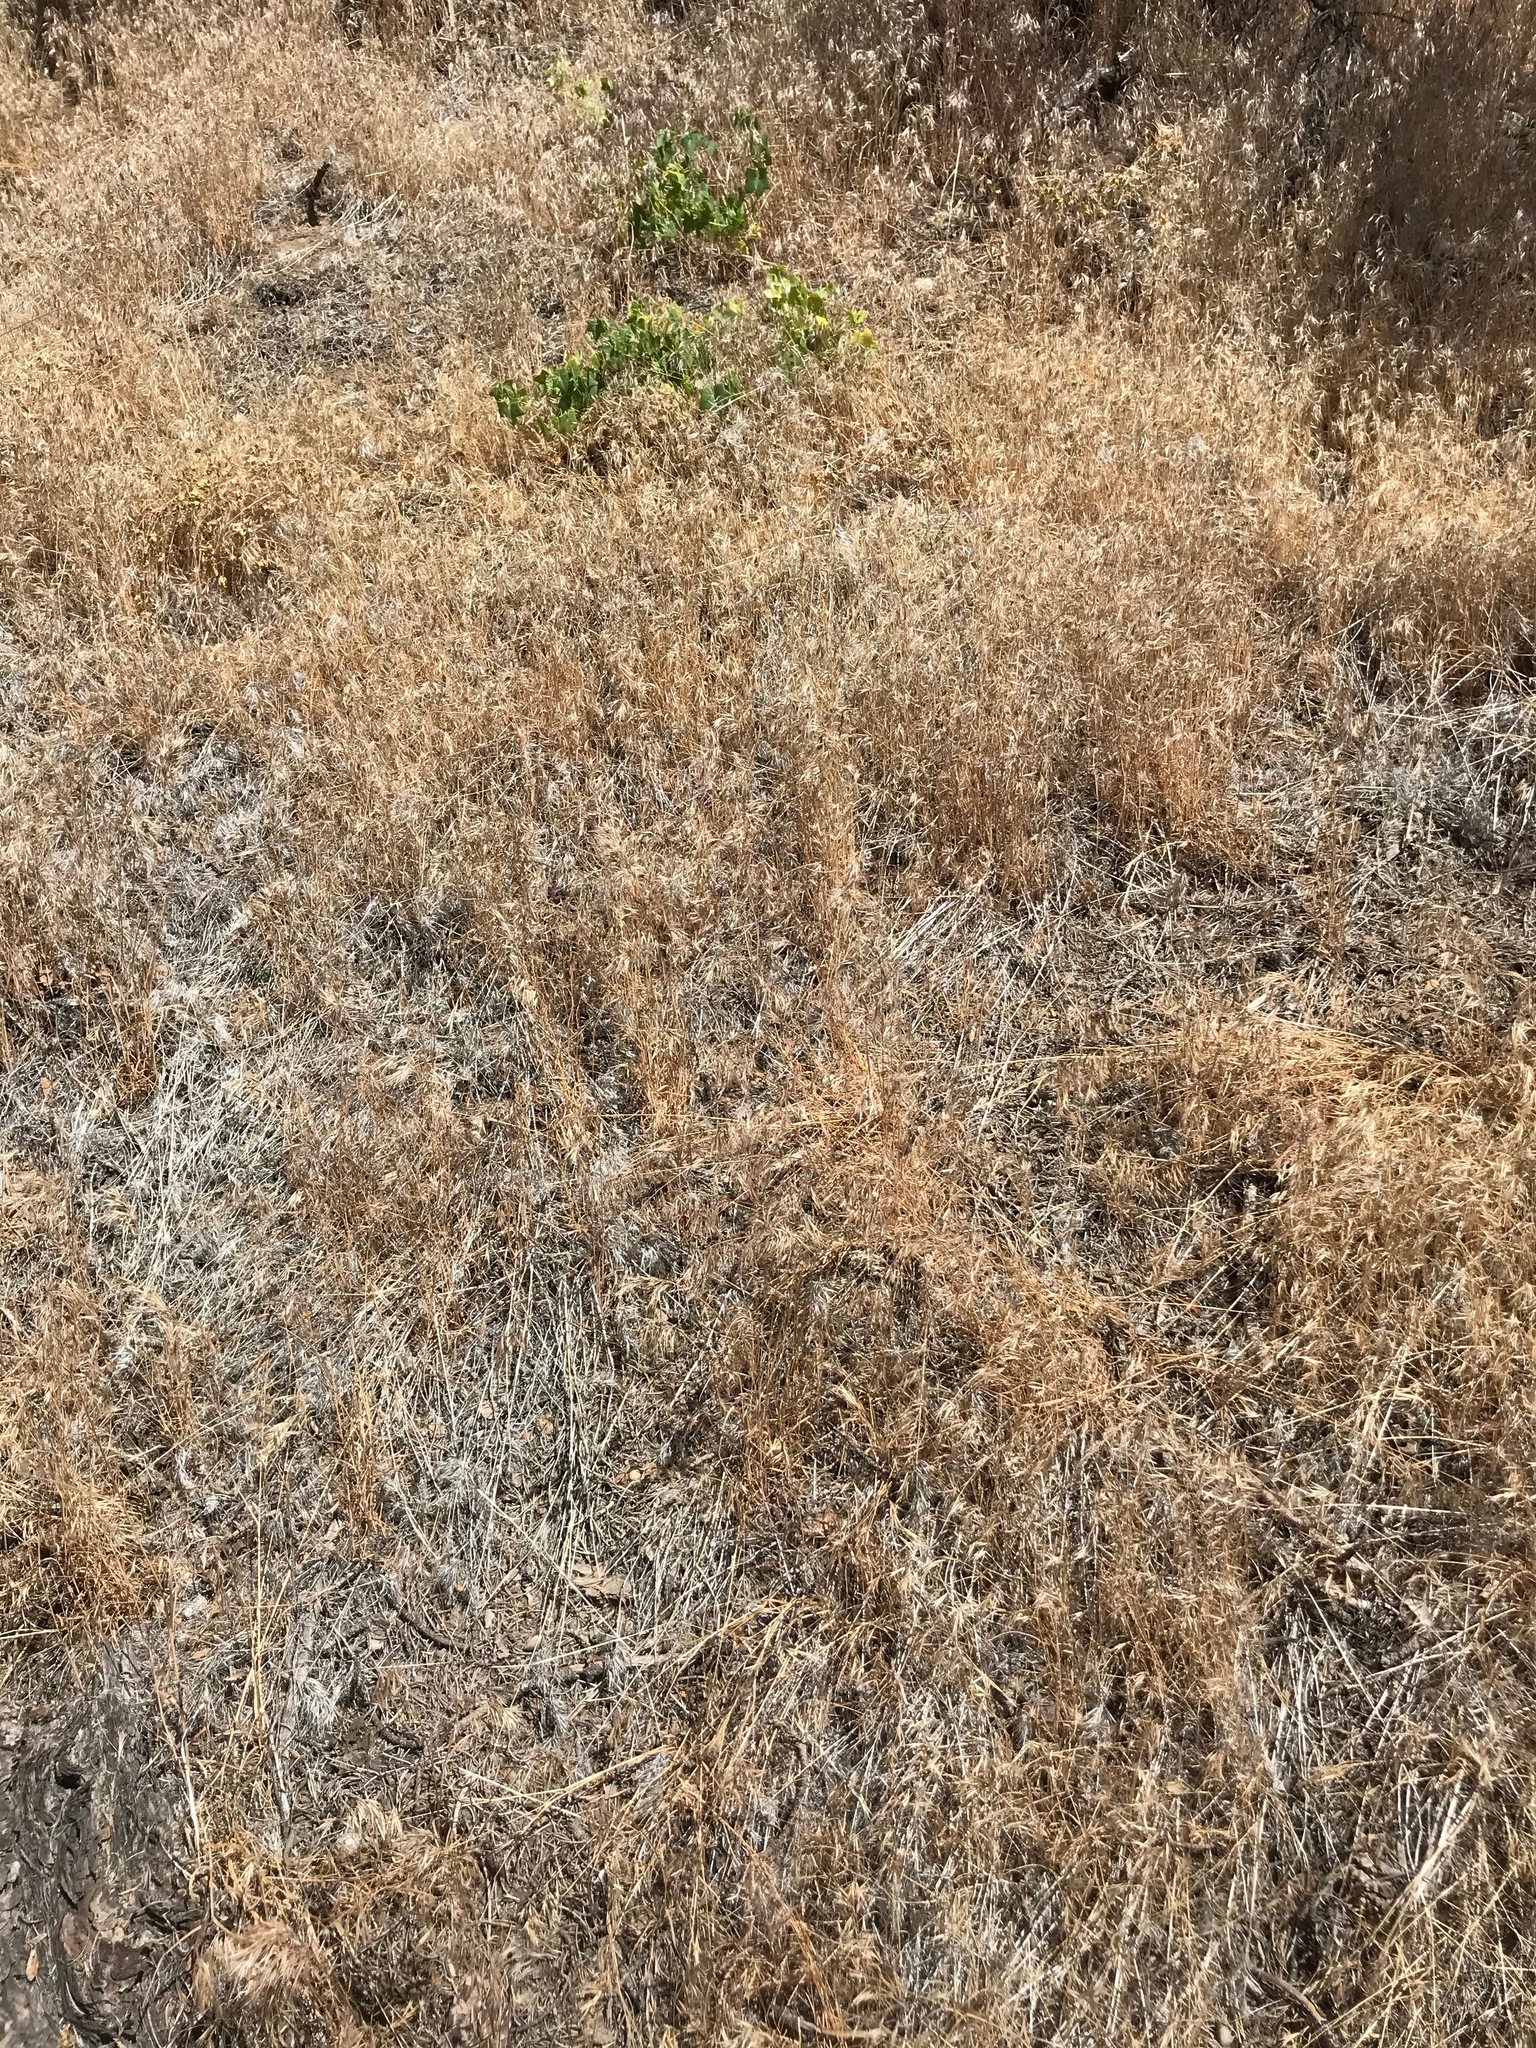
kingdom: Plantae
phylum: Tracheophyta
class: Liliopsida
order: Poales
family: Poaceae
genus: Bromus
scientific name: Bromus tectorum
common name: Cheatgrass
